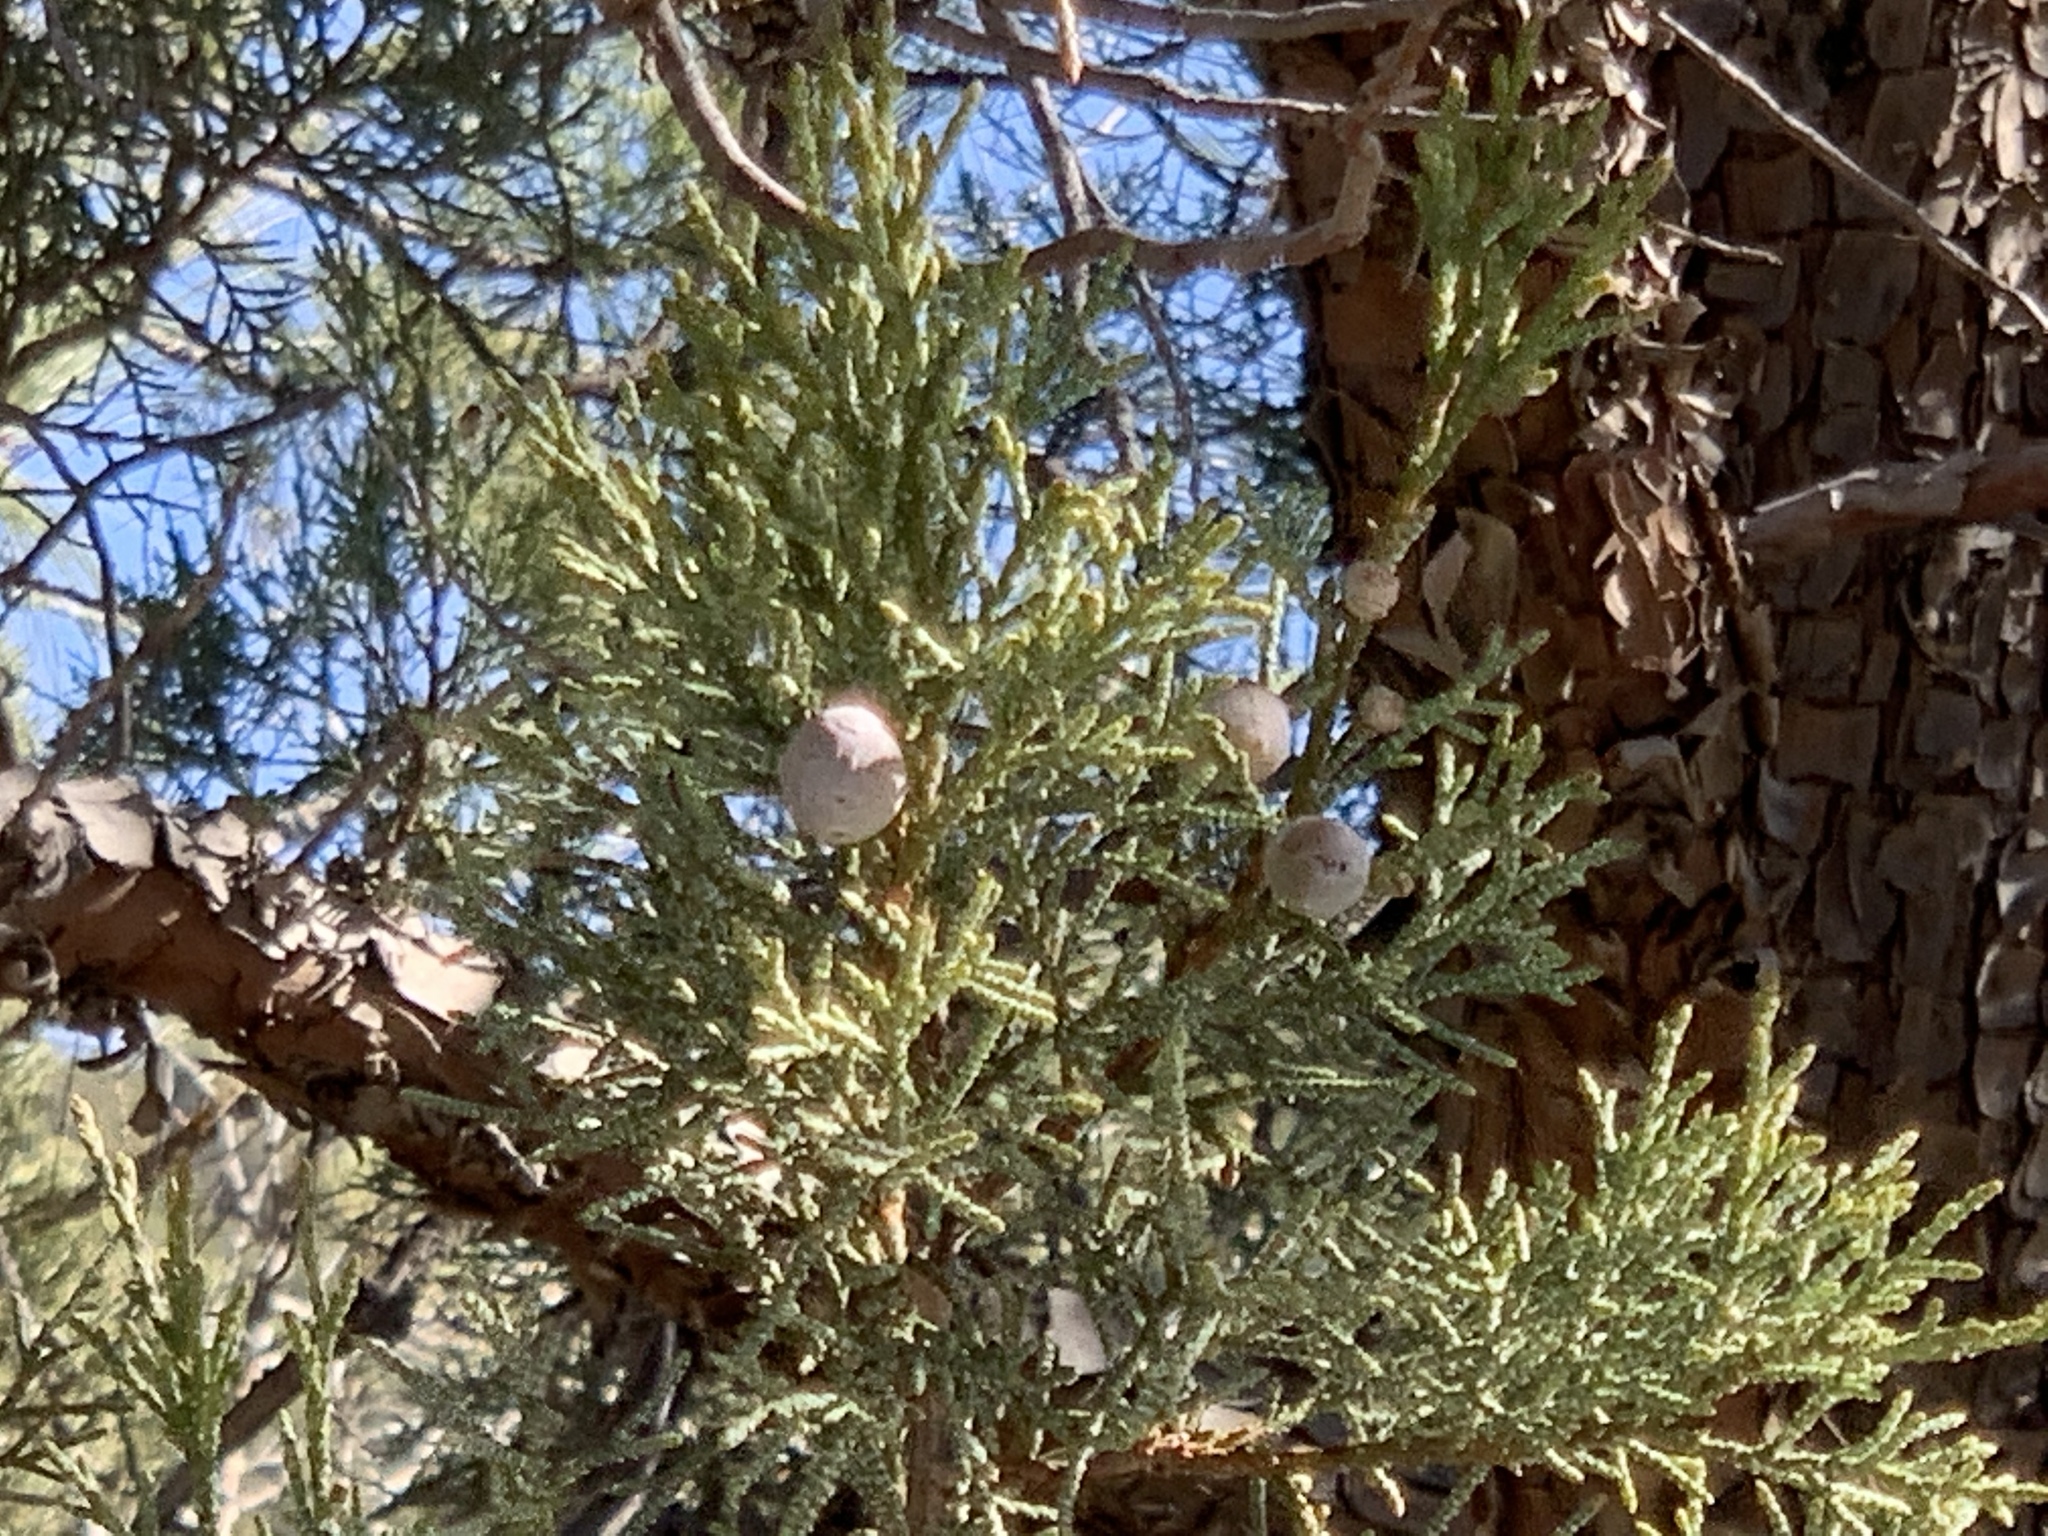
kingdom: Plantae
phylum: Tracheophyta
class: Pinopsida
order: Pinales
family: Cupressaceae
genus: Juniperus
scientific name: Juniperus deppeana
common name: Alligator juniper
